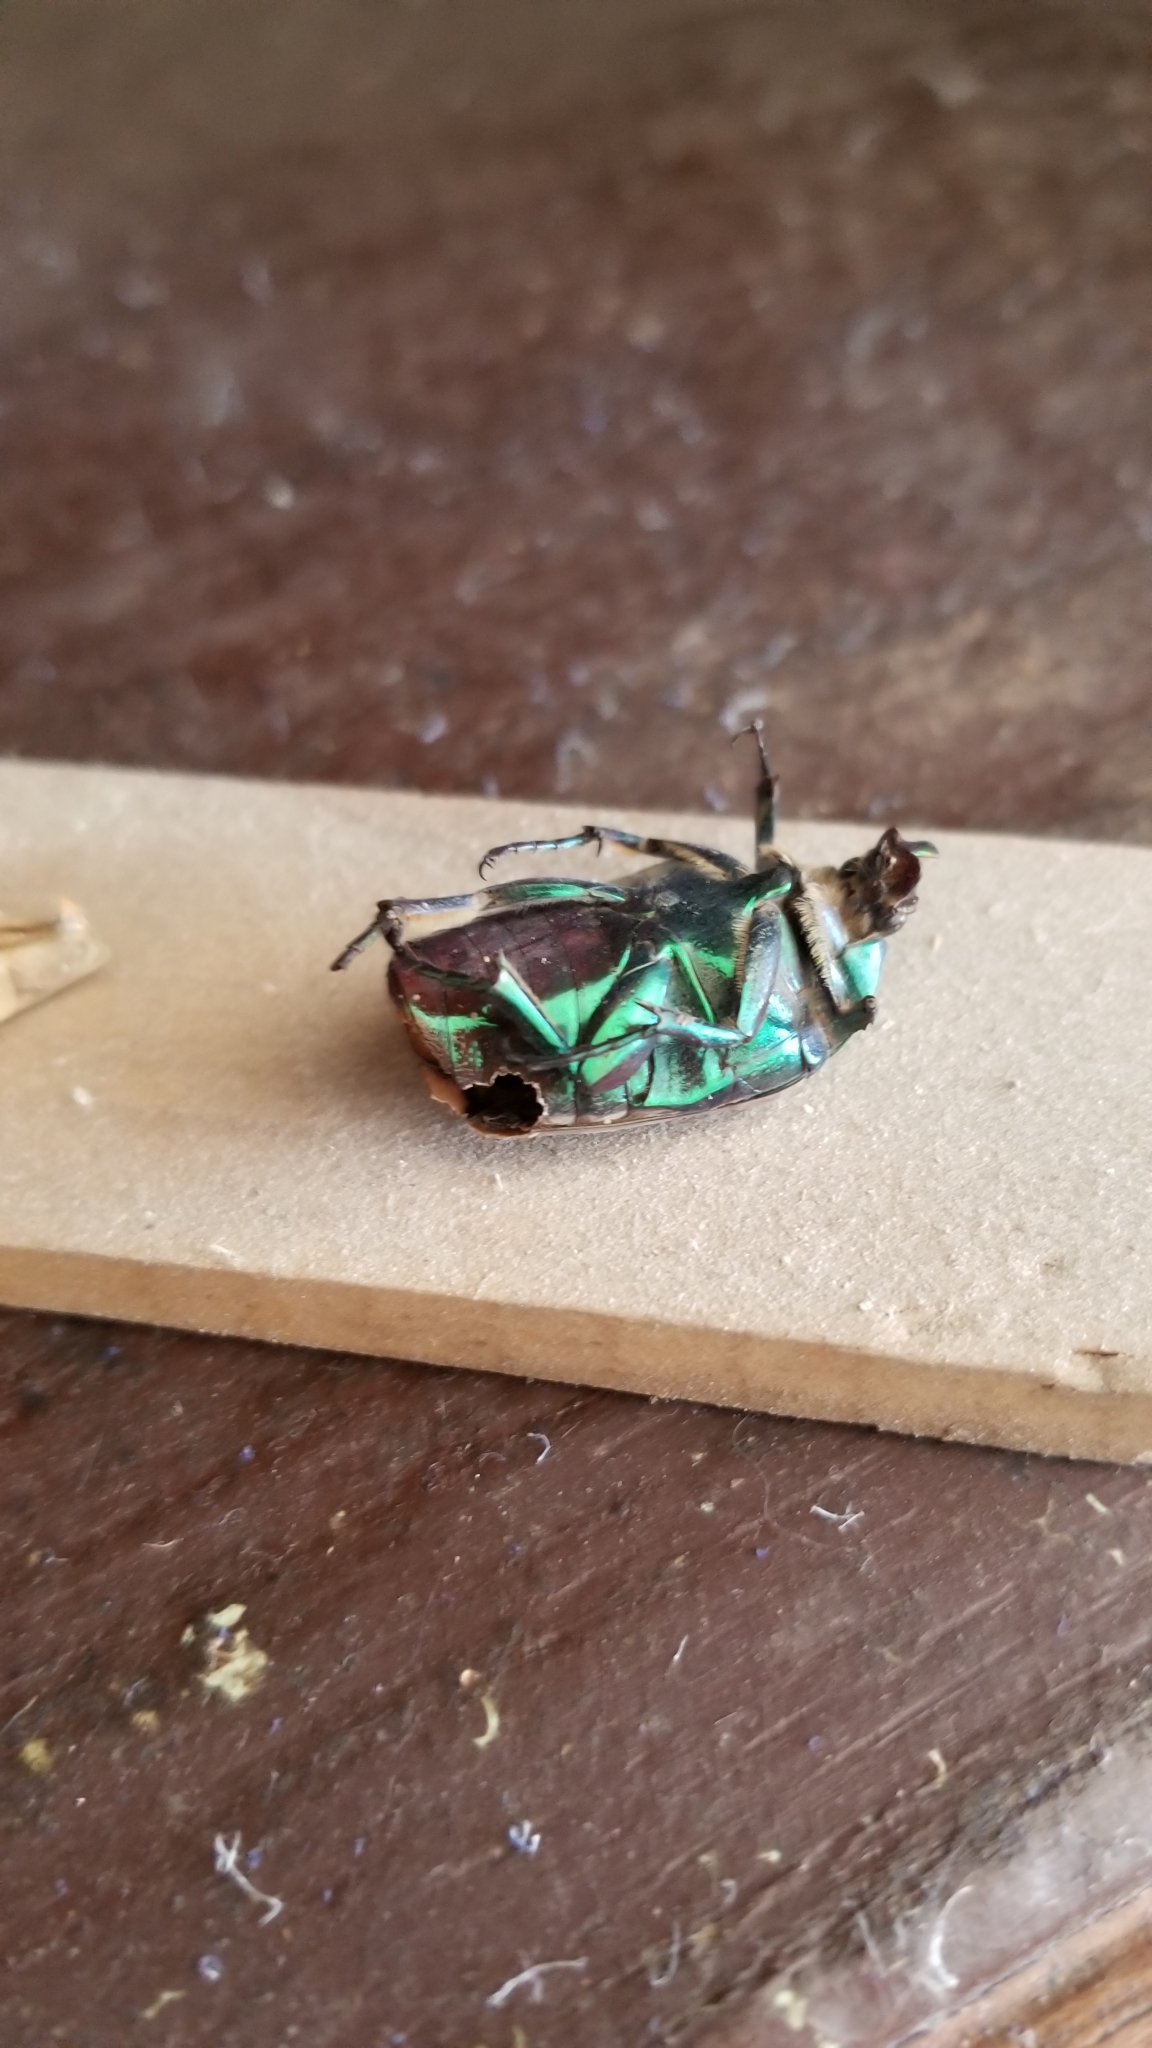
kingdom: Animalia
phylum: Arthropoda
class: Insecta
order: Coleoptera
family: Scarabaeidae
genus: Cotinis
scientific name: Cotinis mutabilis
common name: Figeater beetle
